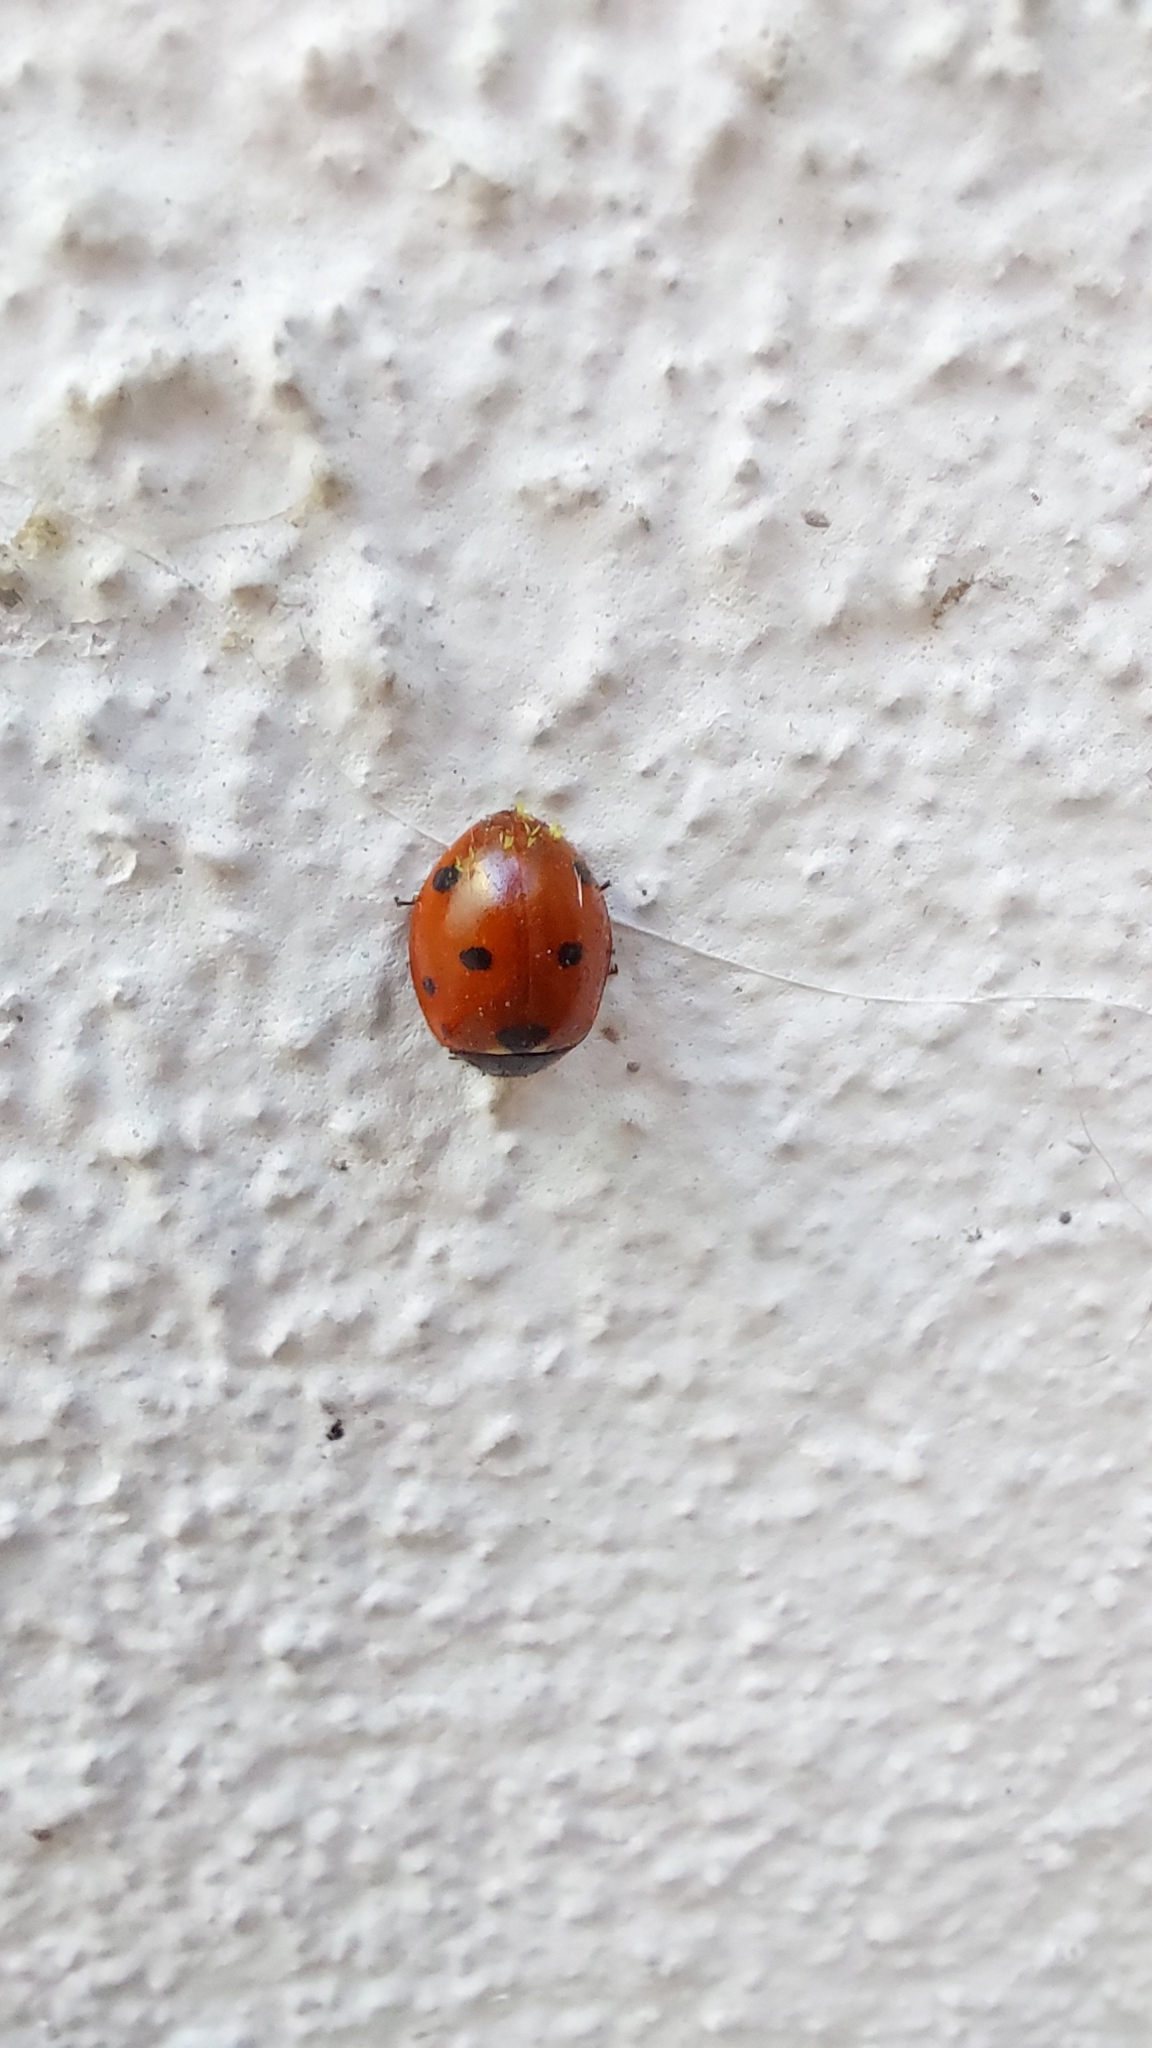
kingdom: Animalia
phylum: Arthropoda
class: Insecta
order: Coleoptera
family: Coccinellidae
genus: Coccinella
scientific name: Coccinella septempunctata
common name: Sevenspotted lady beetle
